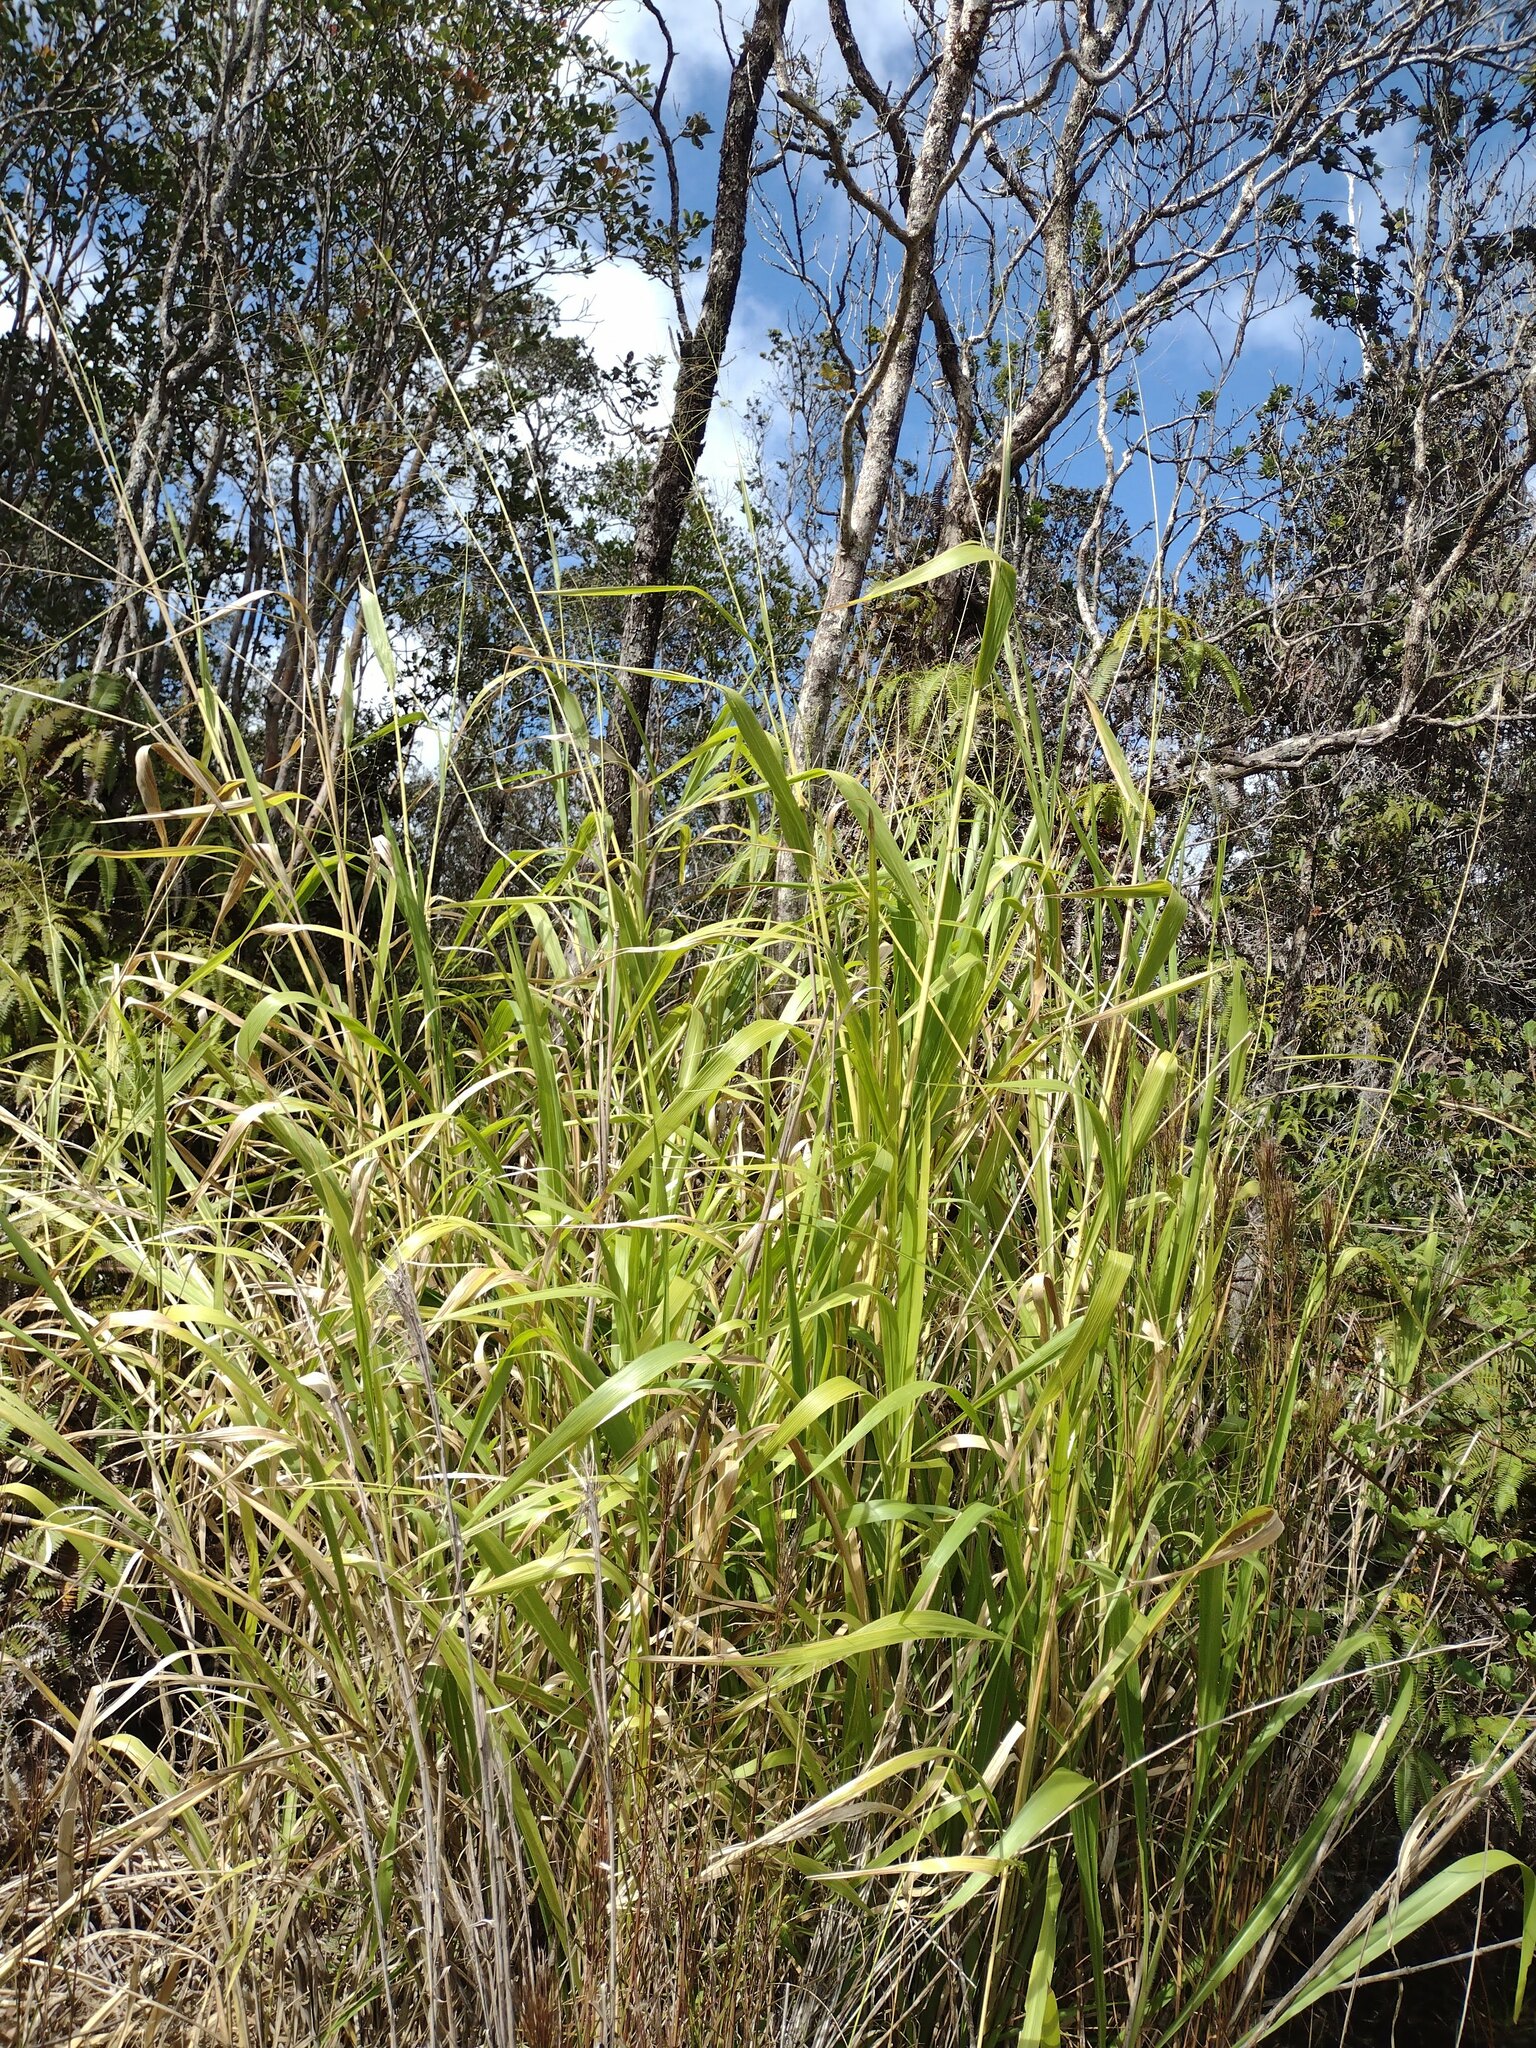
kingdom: Plantae
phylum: Tracheophyta
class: Liliopsida
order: Poales
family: Poaceae
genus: Megathyrsus
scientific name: Megathyrsus maximus
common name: Guineagrass
